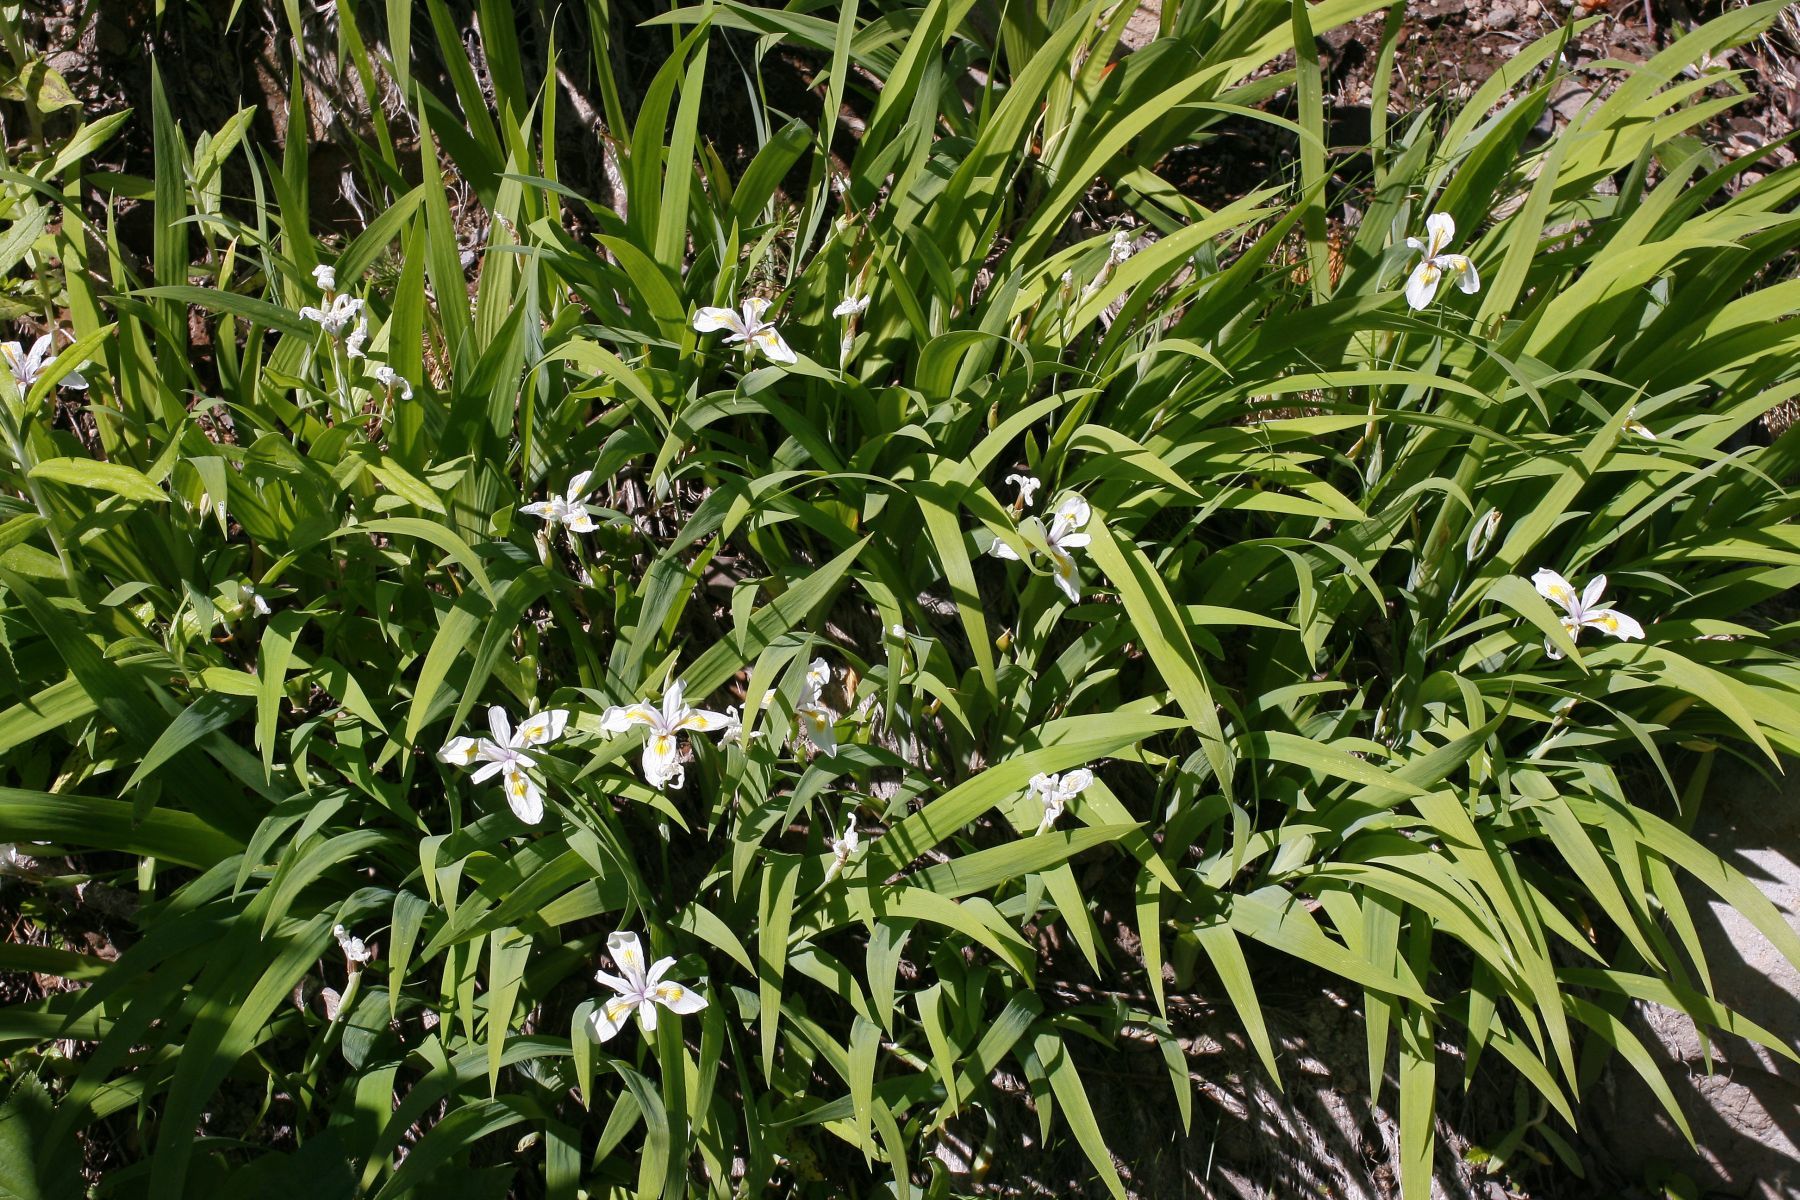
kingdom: Plantae
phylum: Tracheophyta
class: Liliopsida
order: Asparagales
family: Iridaceae
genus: Iris
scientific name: Iris tenuis
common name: Clackamas iris
